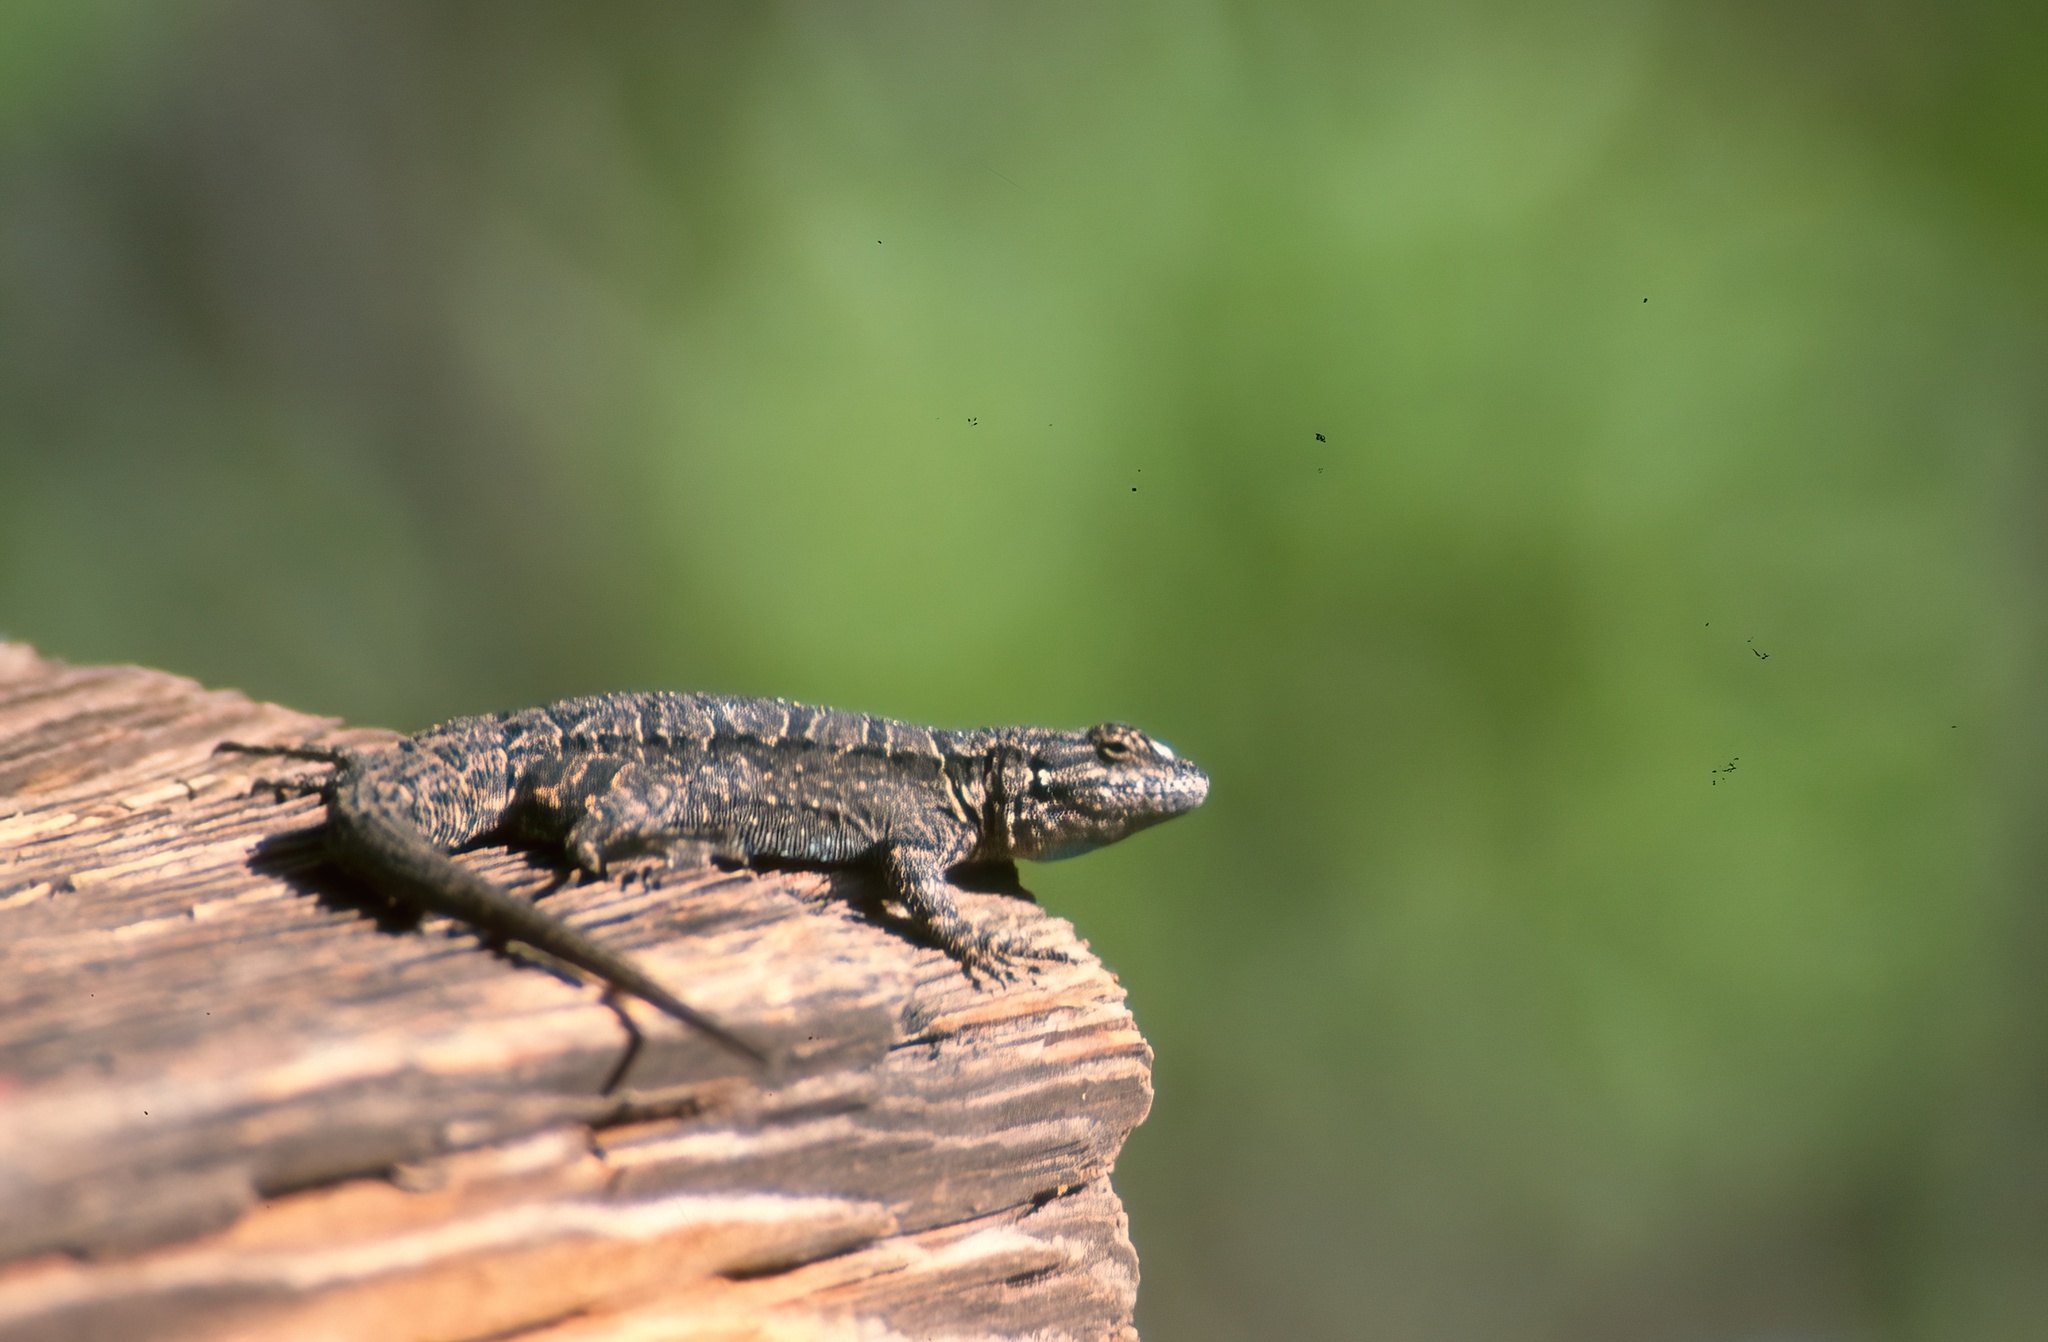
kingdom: Animalia
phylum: Chordata
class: Squamata
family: Phrynosomatidae
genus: Urosaurus
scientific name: Urosaurus ornatus
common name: Ornate tree lizard
